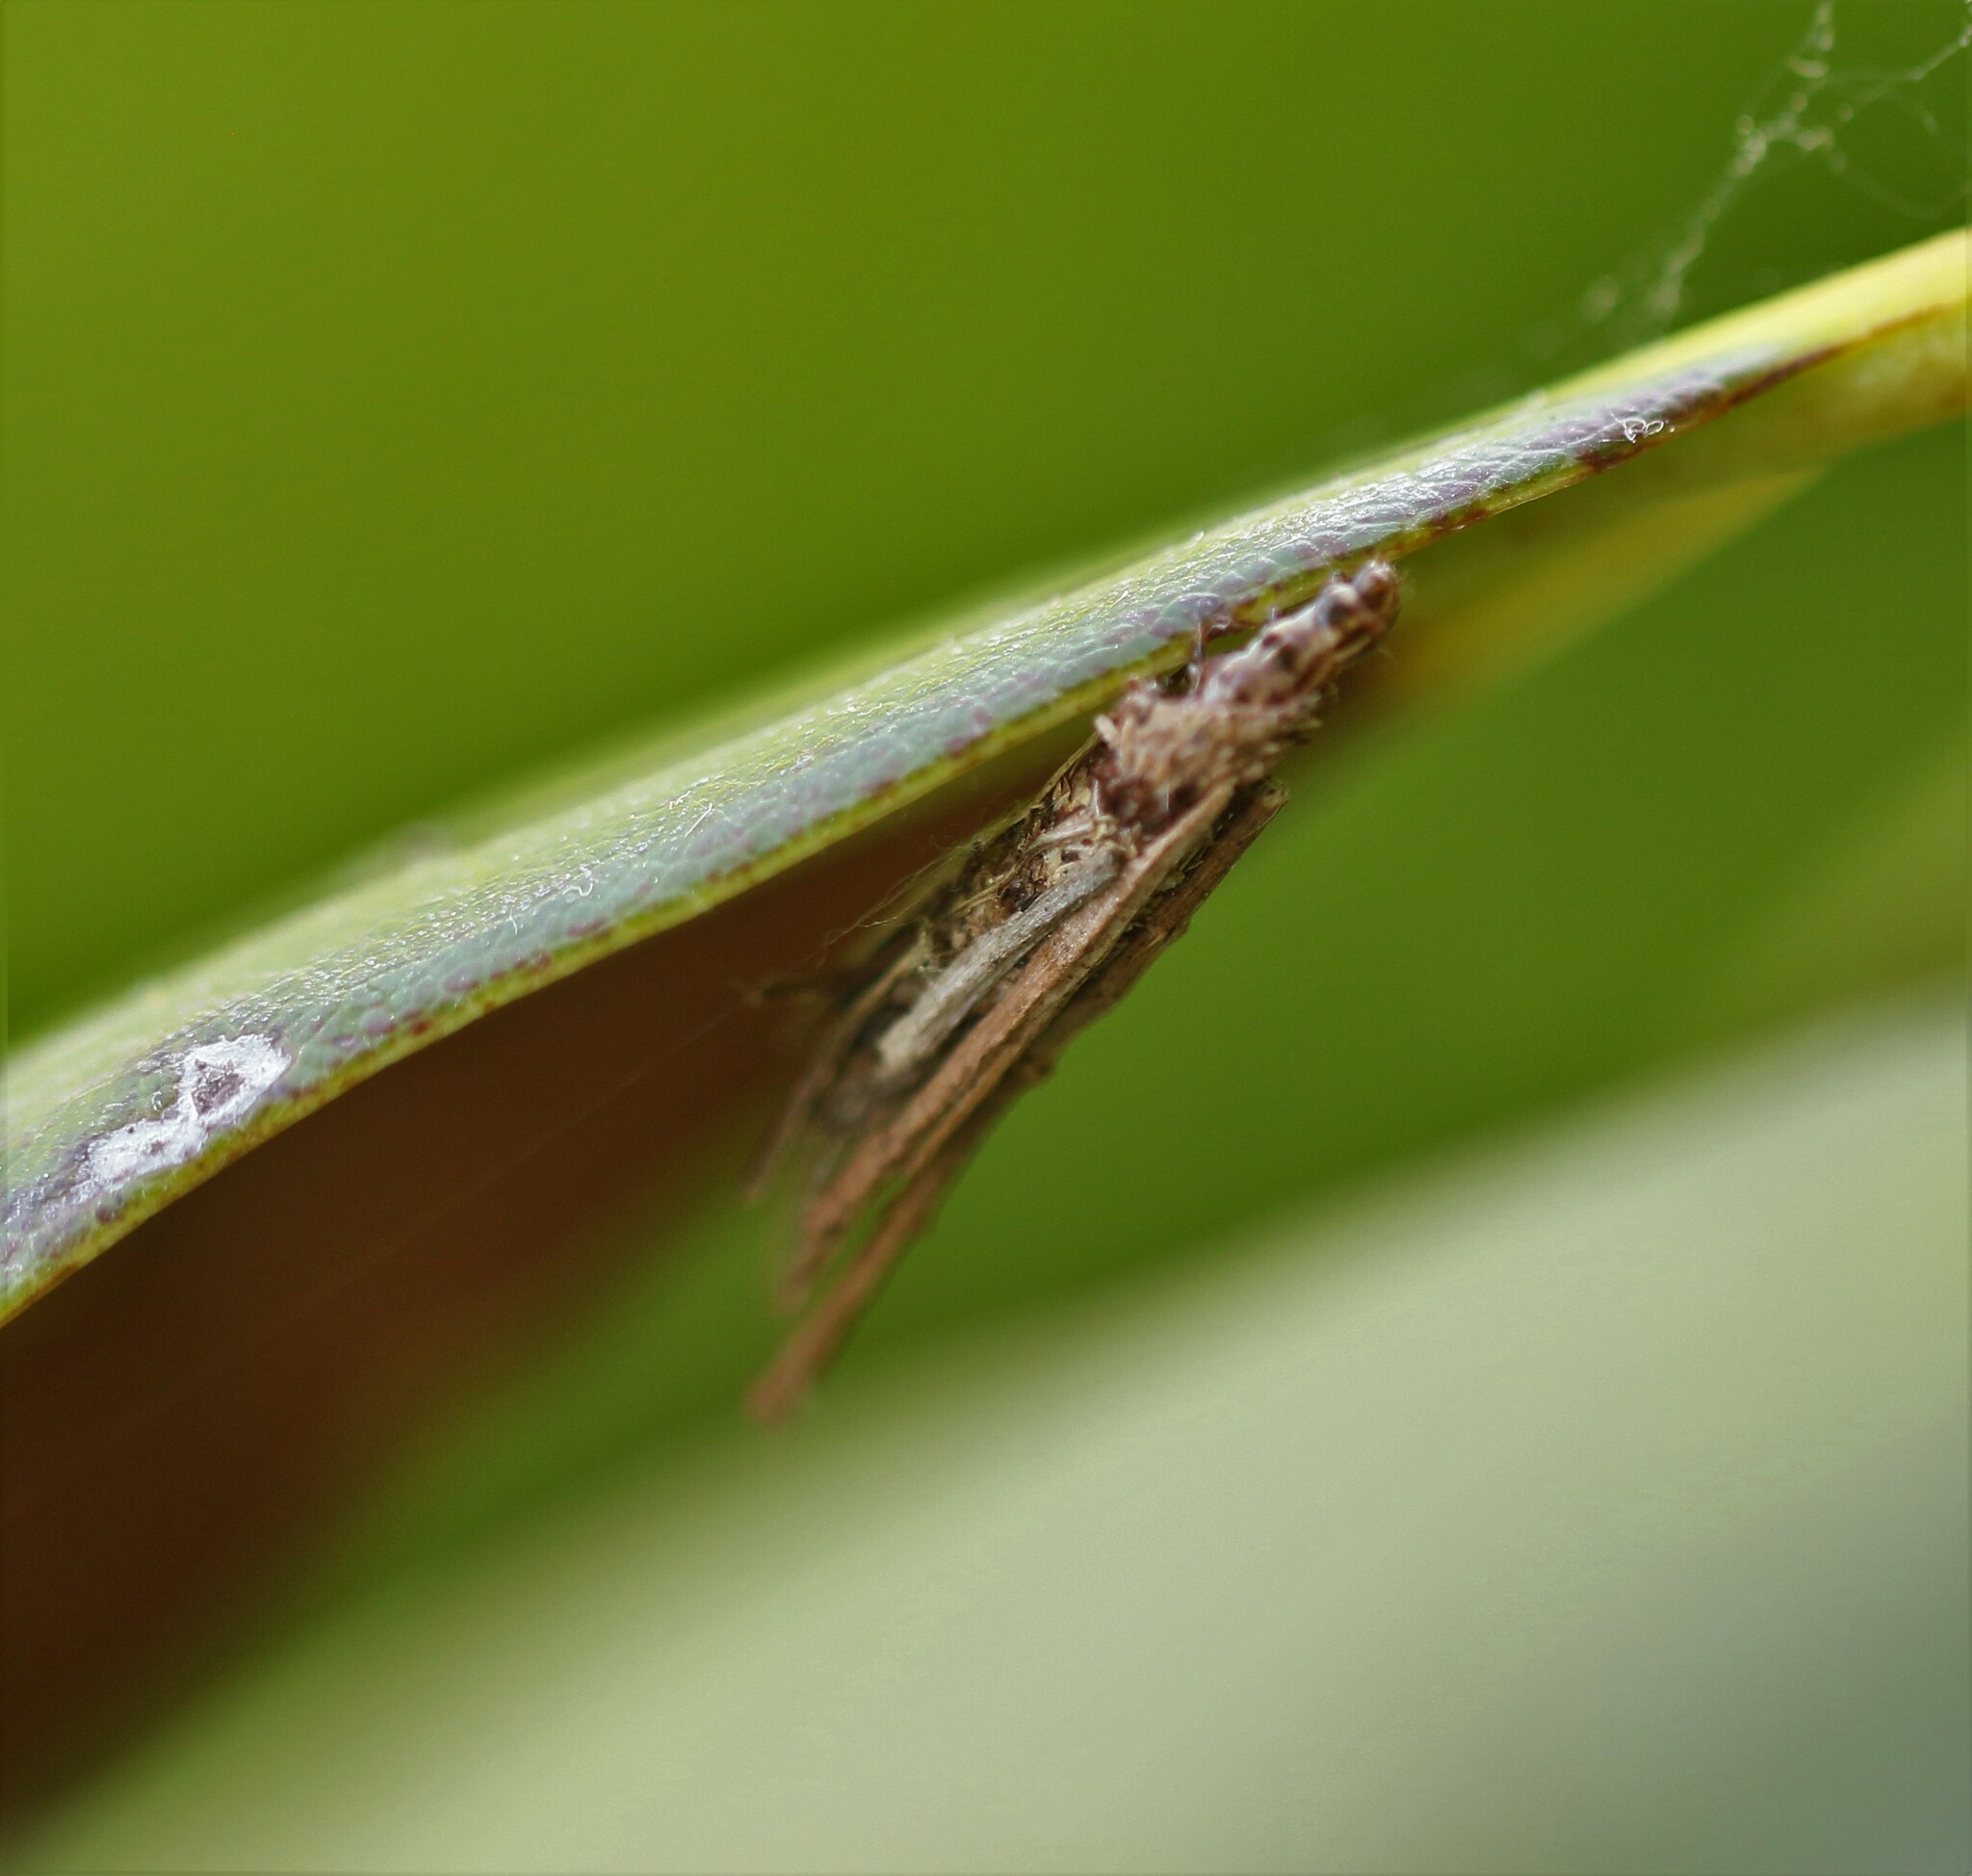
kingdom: Animalia
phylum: Arthropoda
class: Insecta
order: Lepidoptera
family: Psychidae
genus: Psyche
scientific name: Psyche casta
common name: Common sweep
